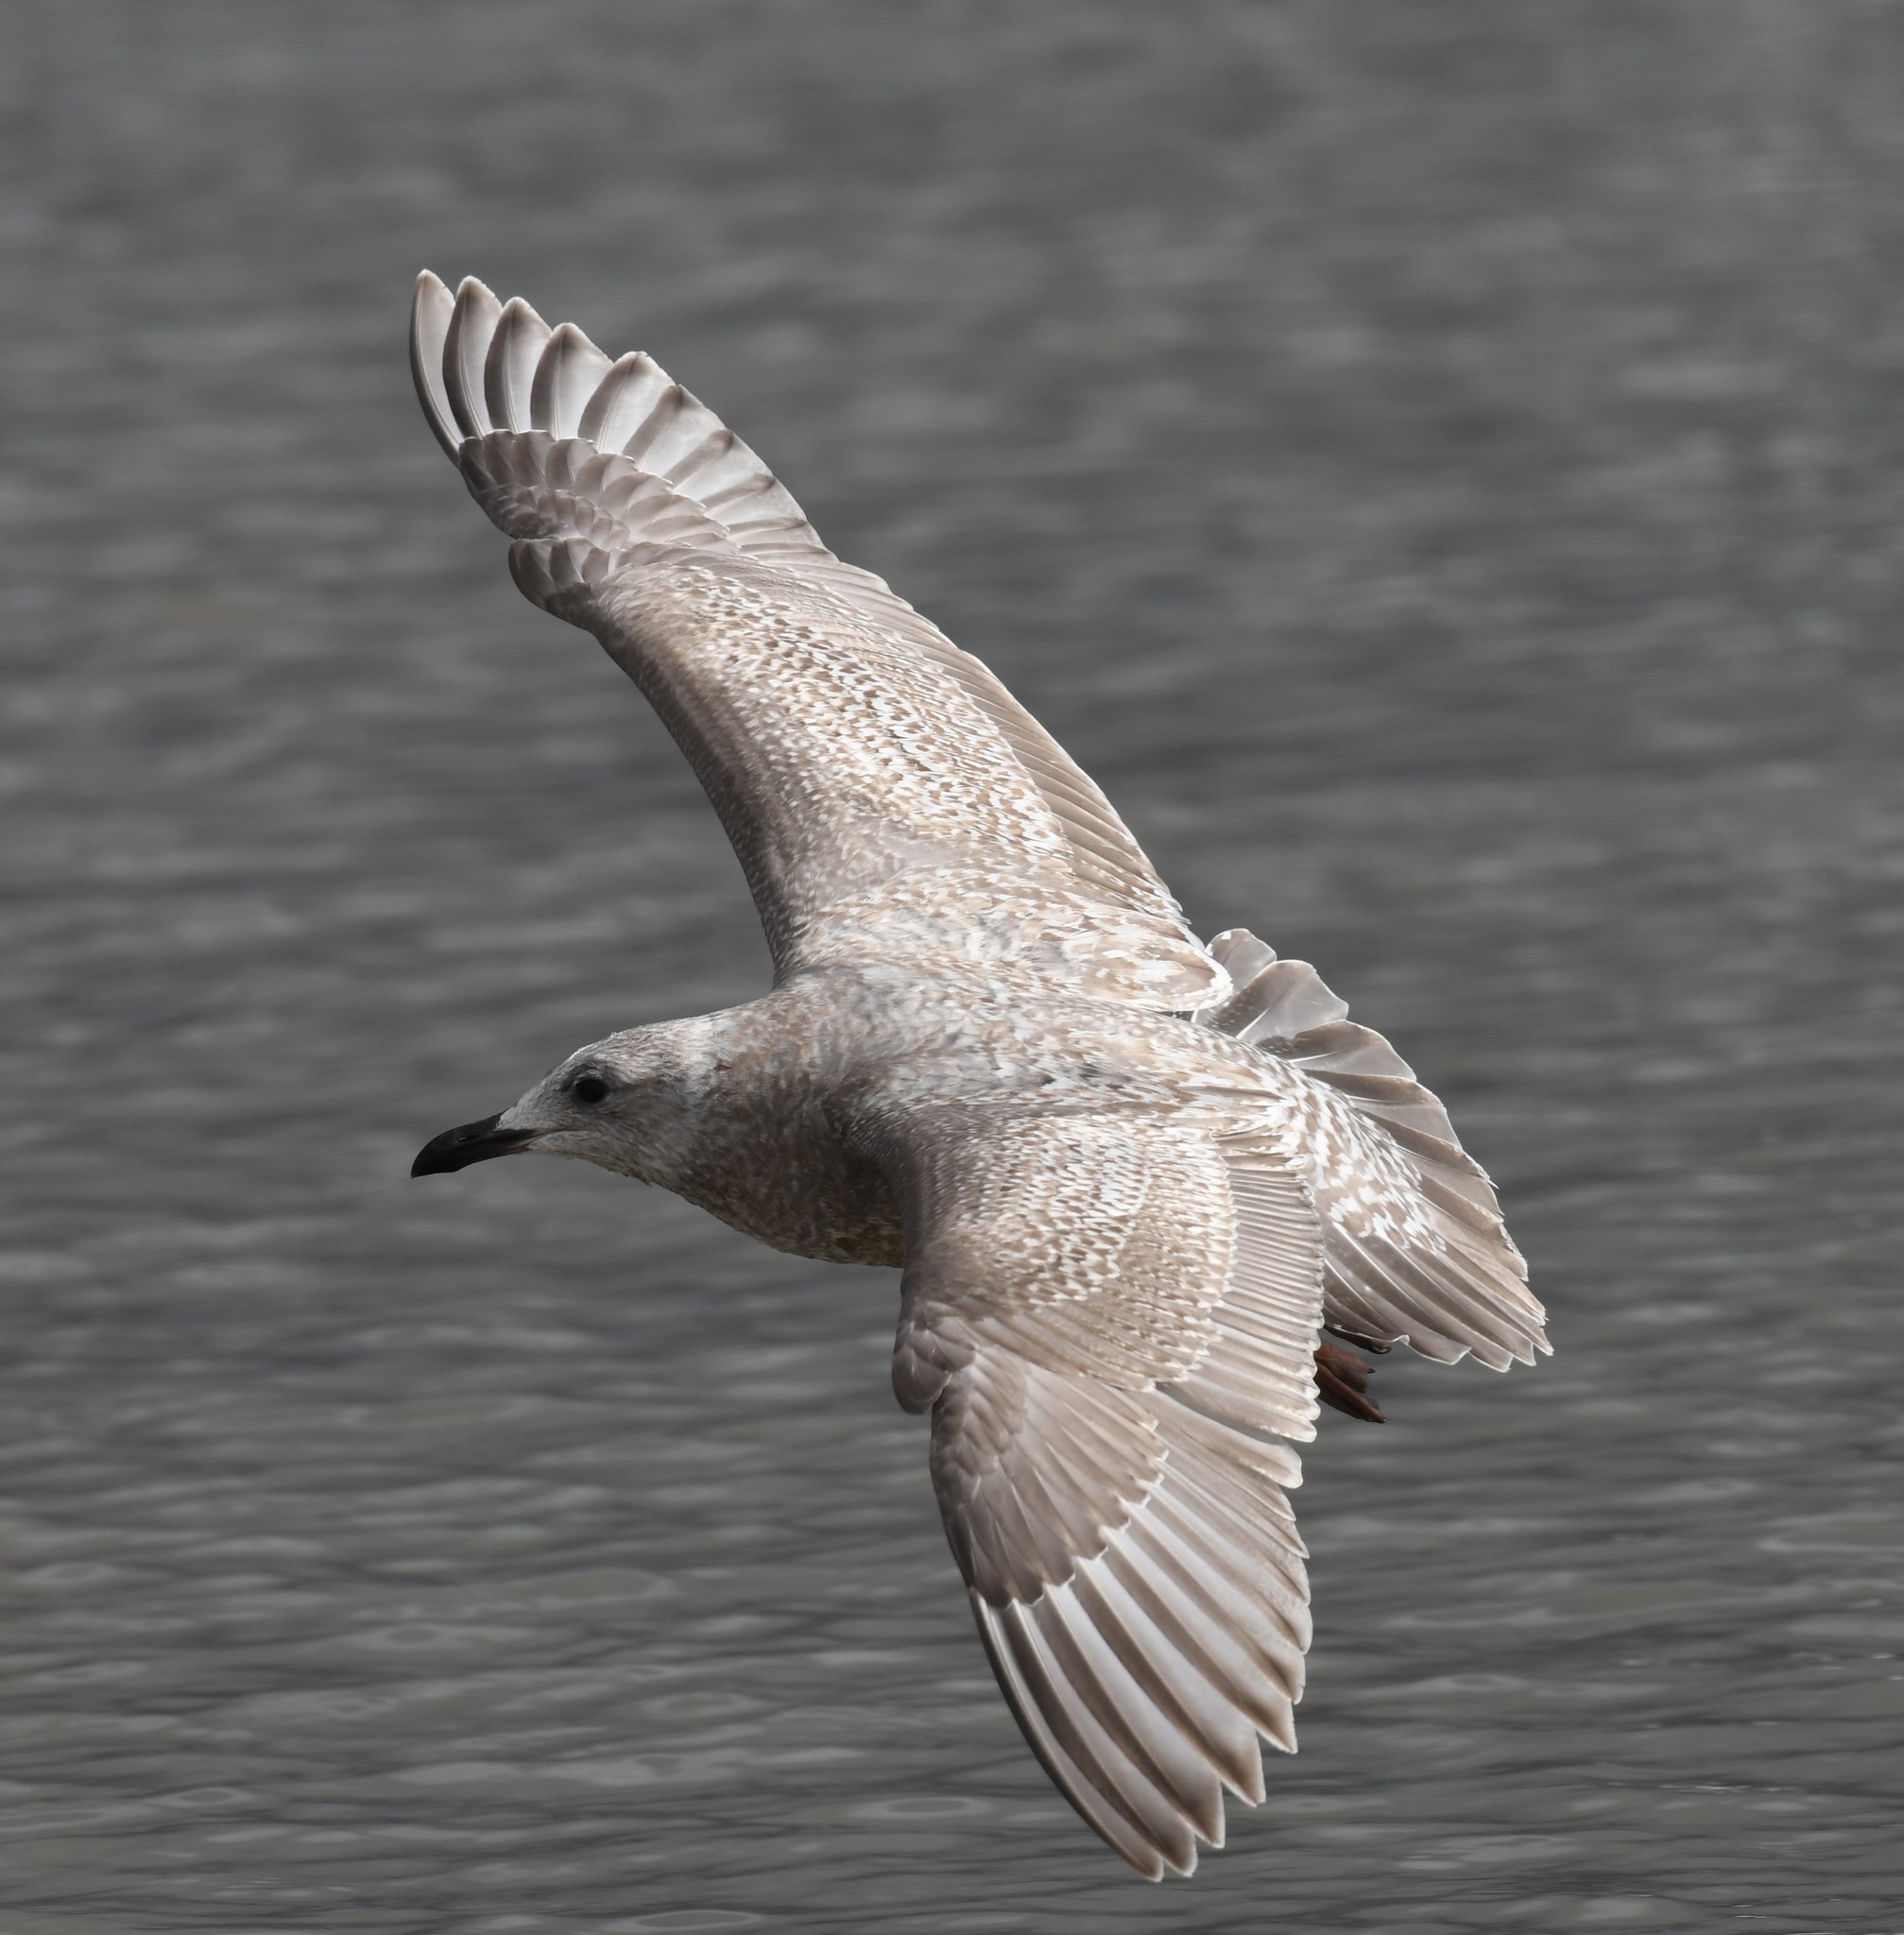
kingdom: Animalia
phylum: Chordata
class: Aves
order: Charadriiformes
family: Laridae
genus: Larus
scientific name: Larus glaucoides
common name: Iceland gull
